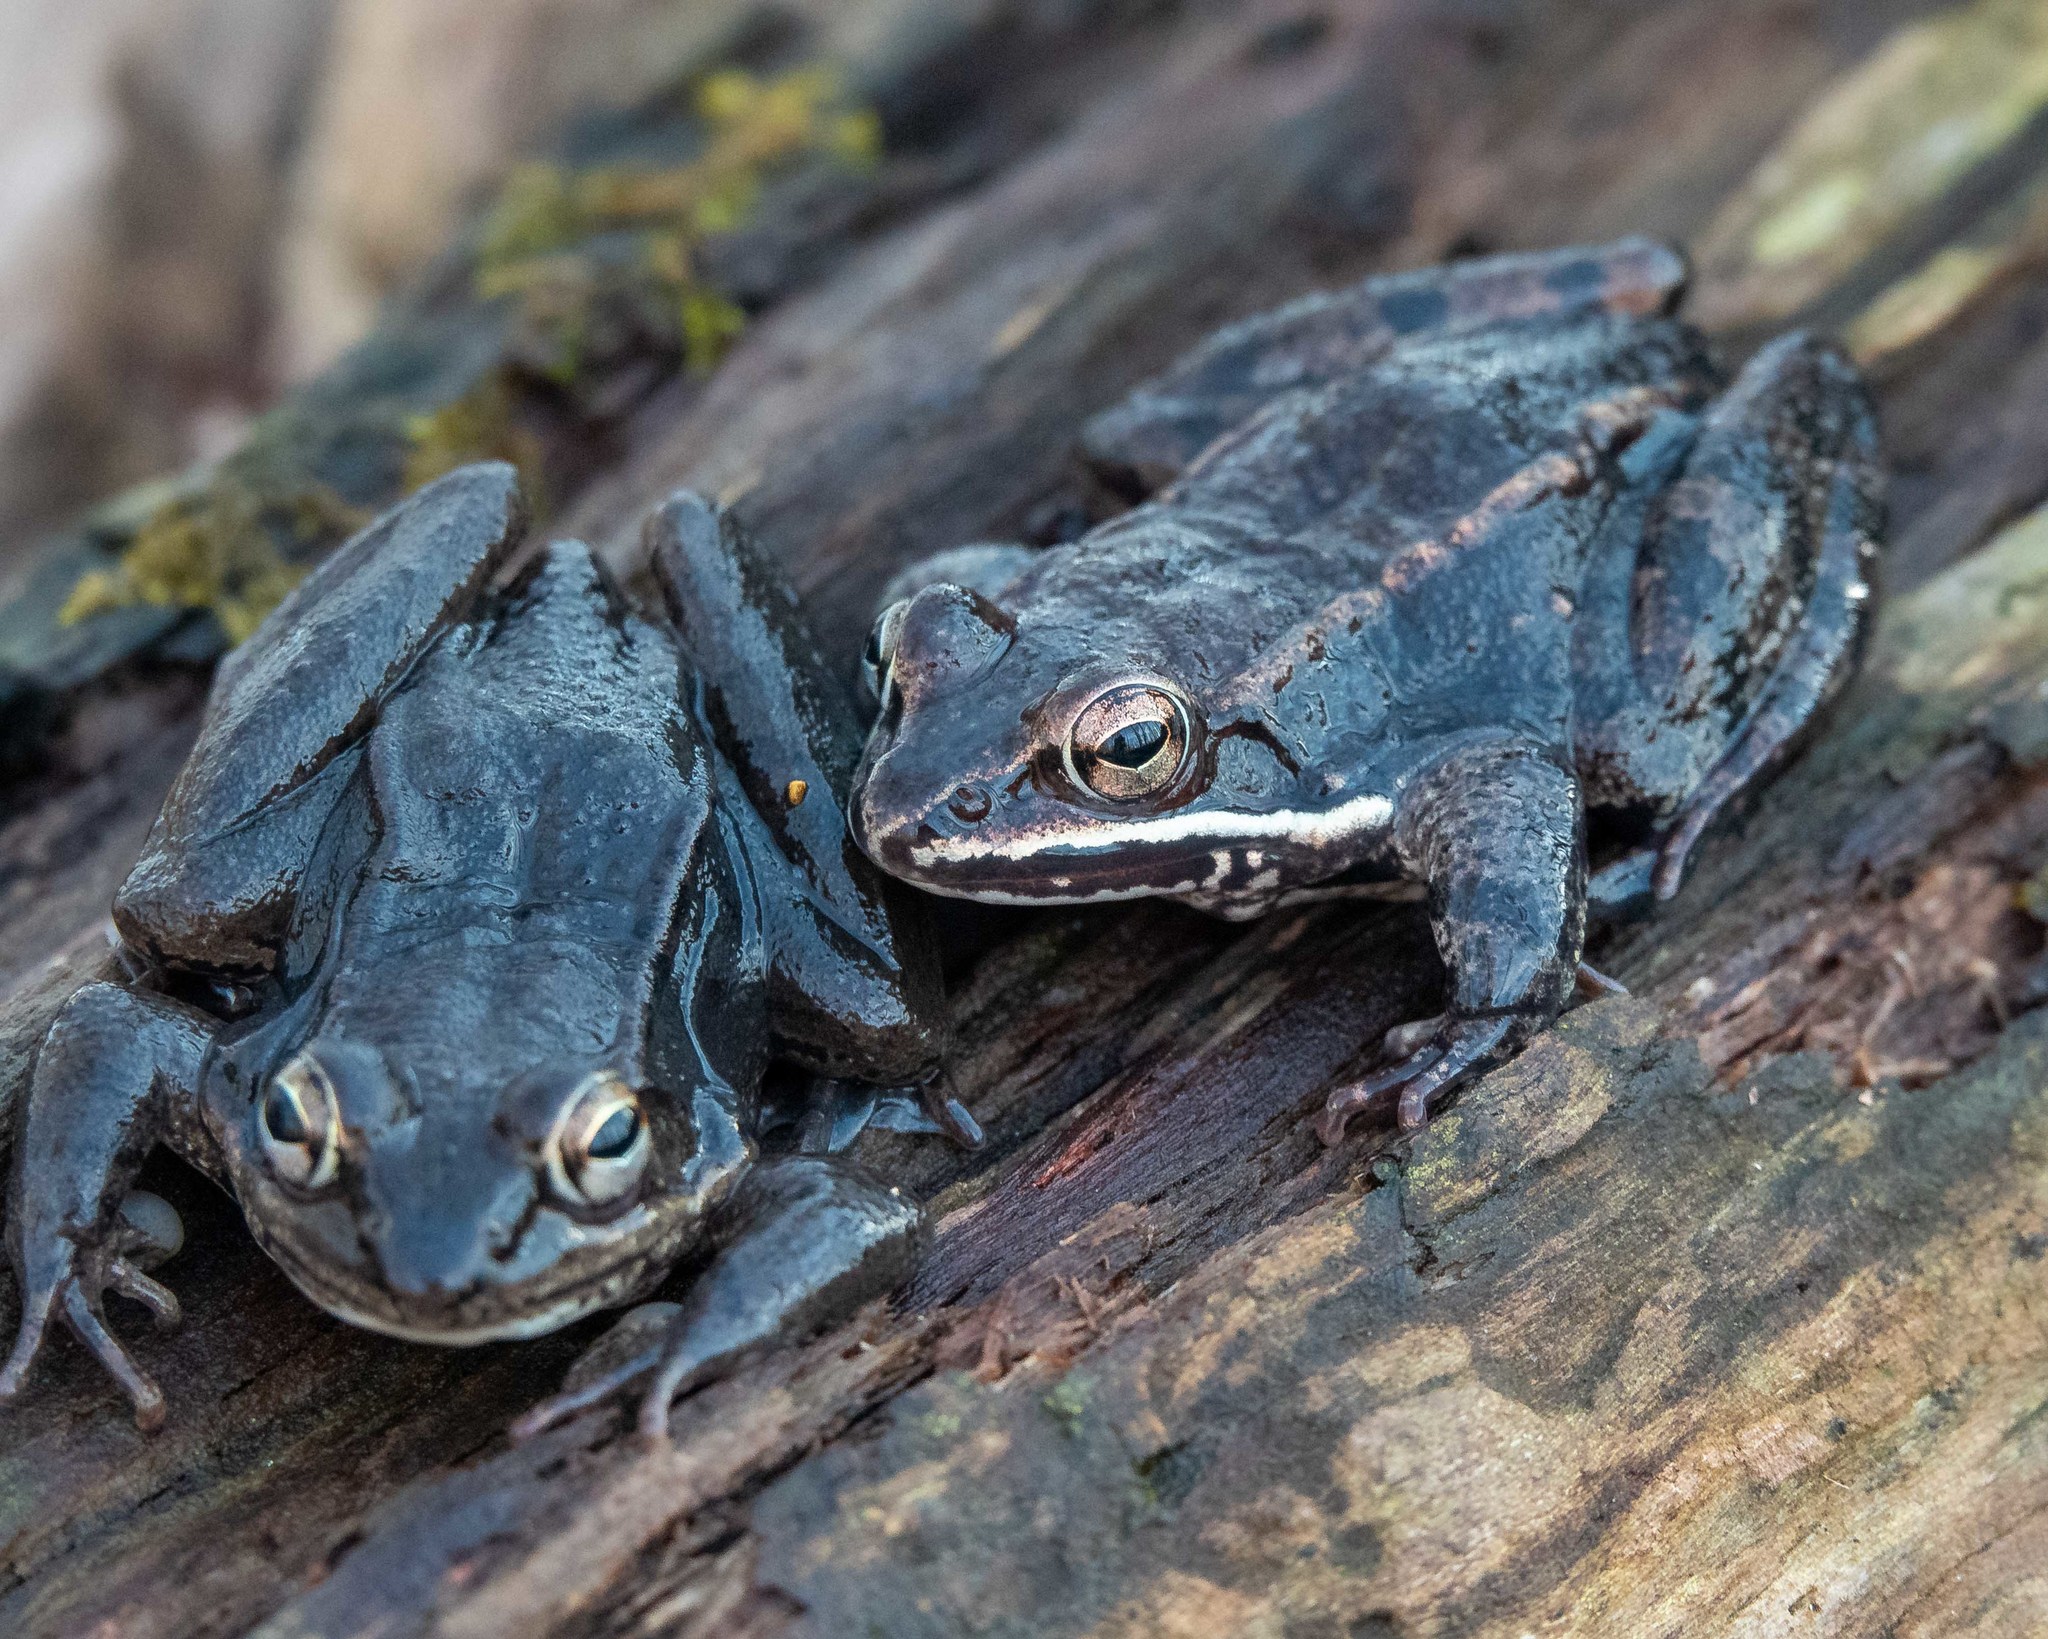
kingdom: Animalia
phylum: Chordata
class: Amphibia
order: Anura
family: Ranidae
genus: Lithobates
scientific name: Lithobates sylvaticus
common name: Wood frog
